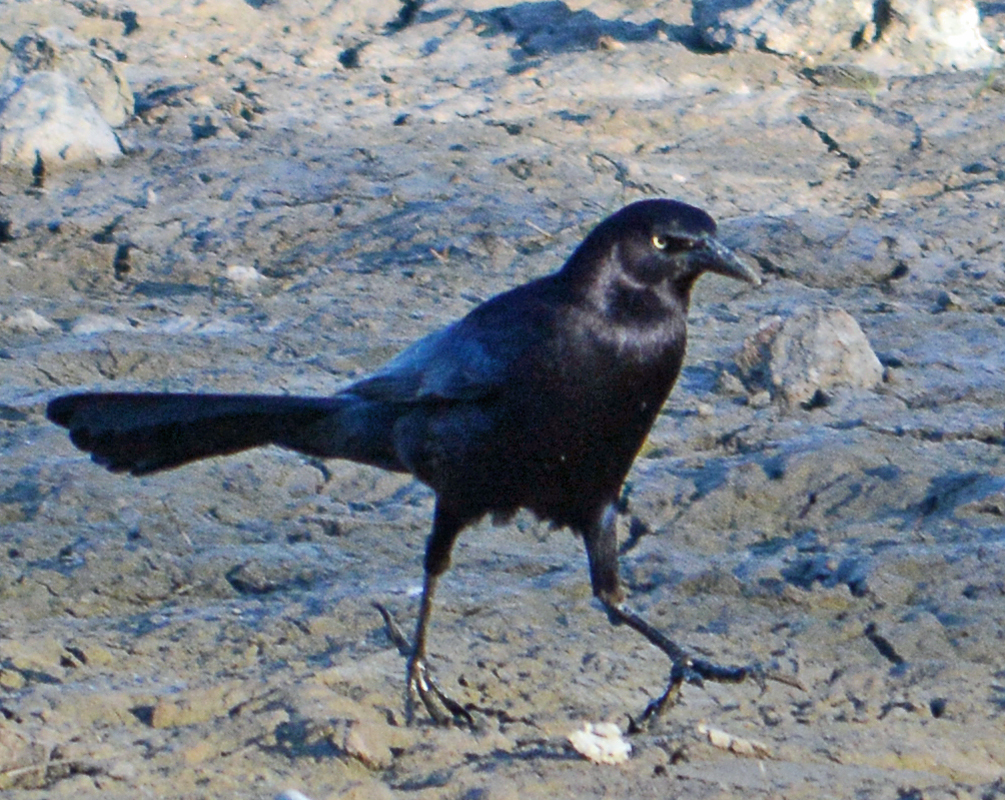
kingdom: Animalia
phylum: Chordata
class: Aves
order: Passeriformes
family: Icteridae
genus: Quiscalus
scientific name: Quiscalus mexicanus
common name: Great-tailed grackle
